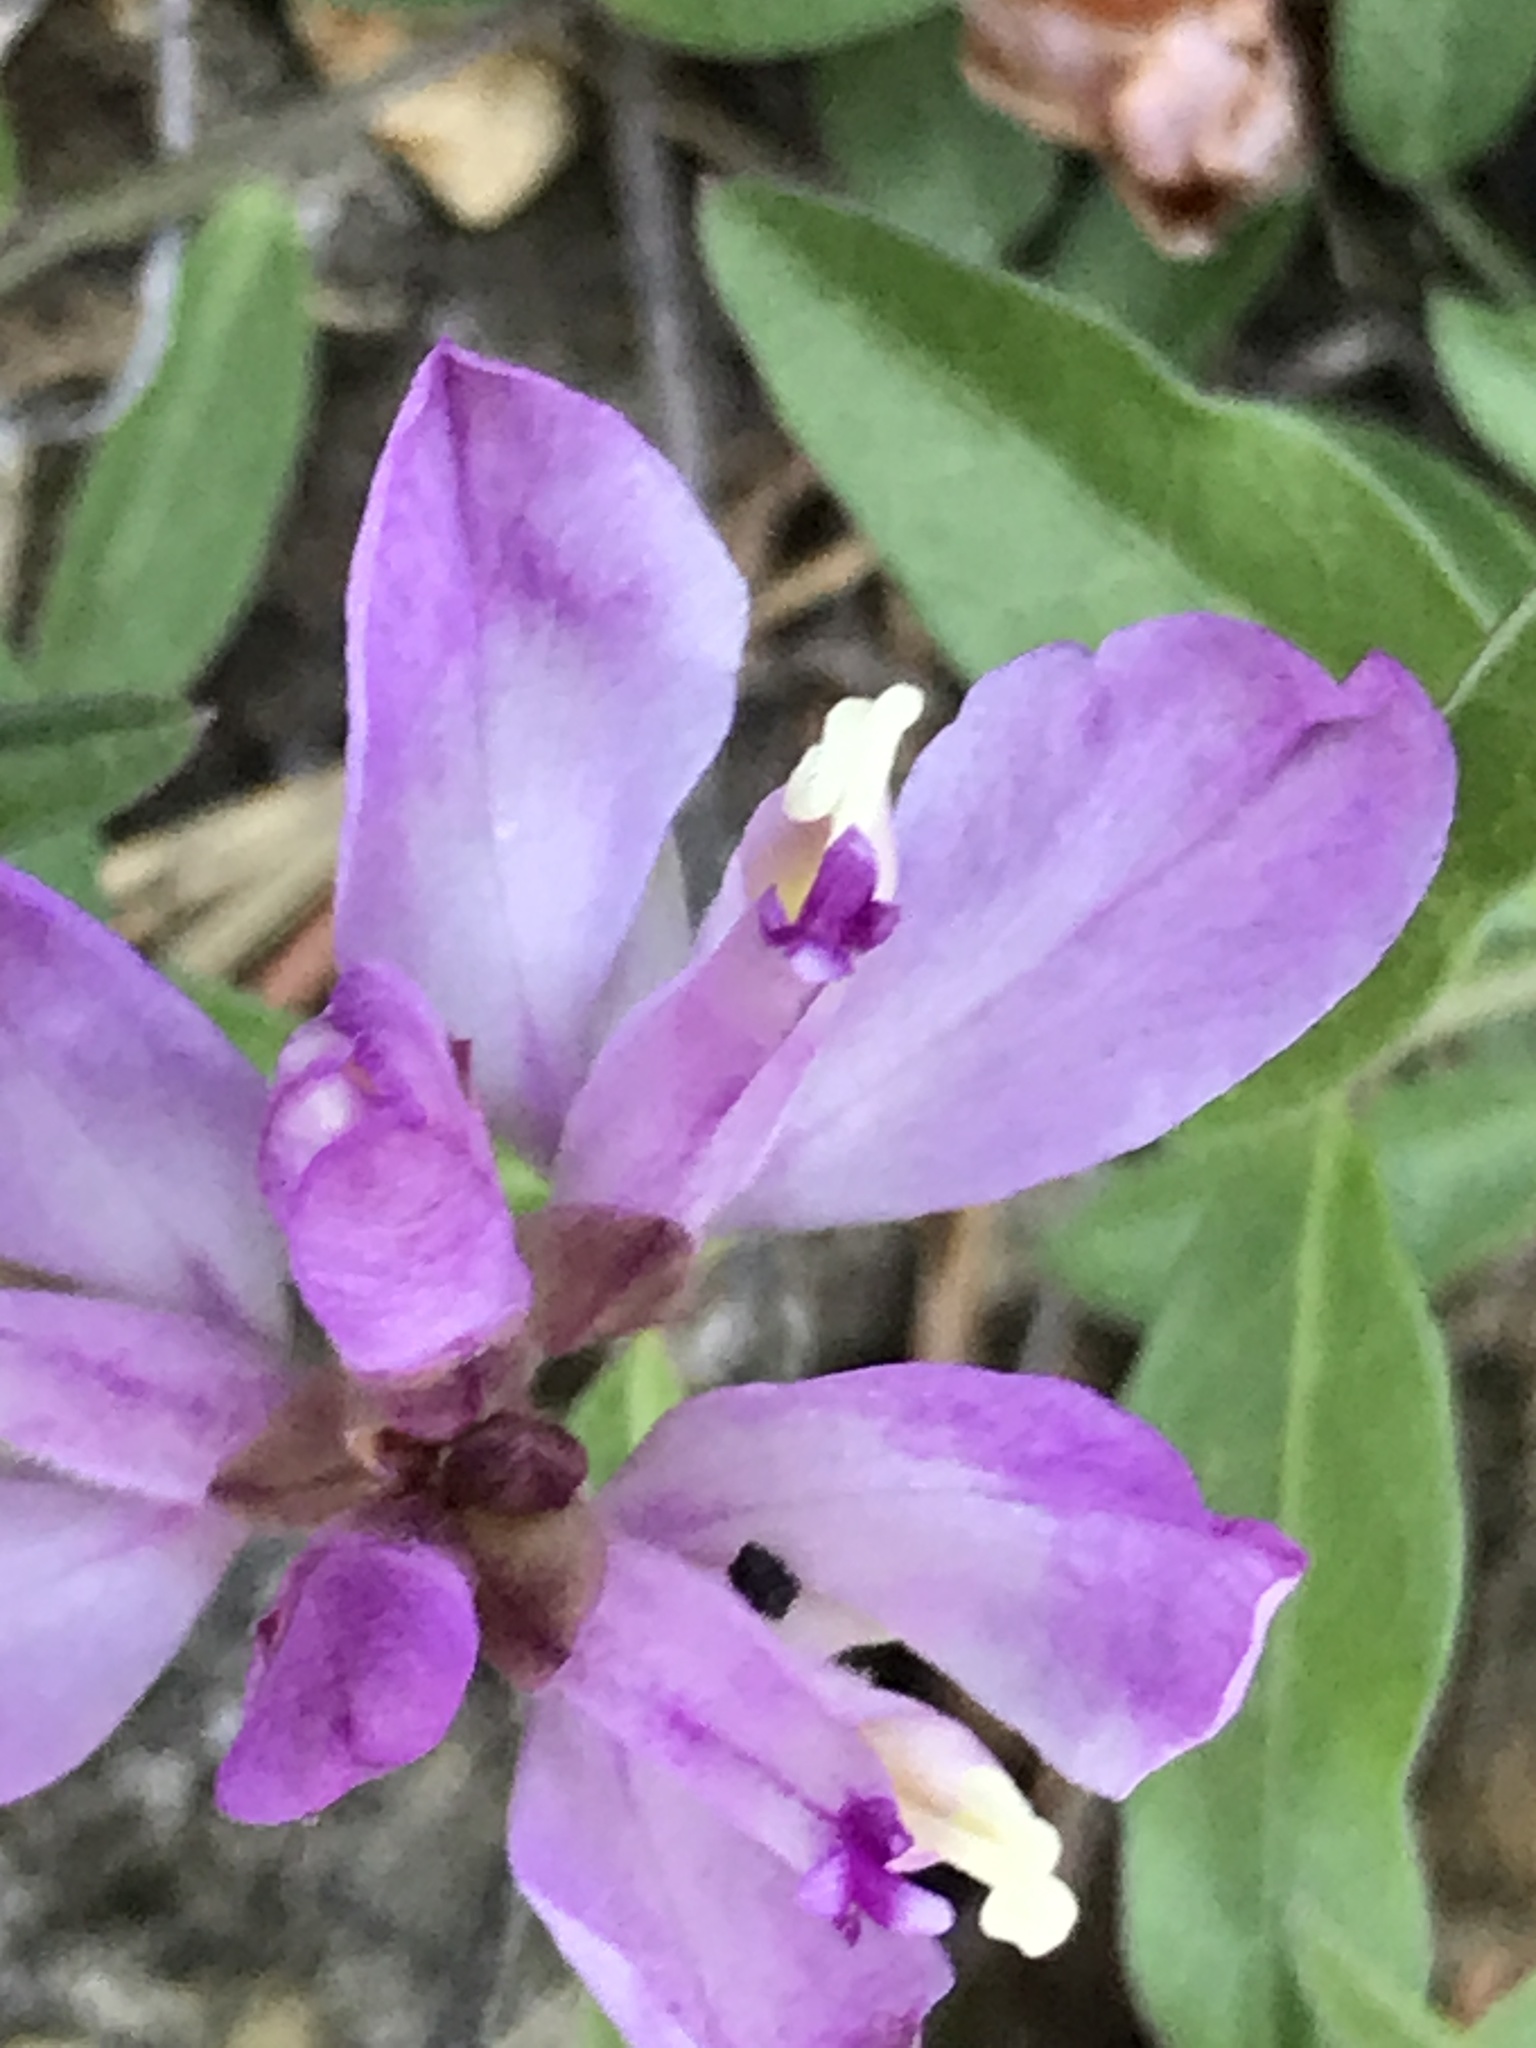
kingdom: Plantae
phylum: Tracheophyta
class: Magnoliopsida
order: Fabales
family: Polygalaceae
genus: Rhinotropis
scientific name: Rhinotropis californica
